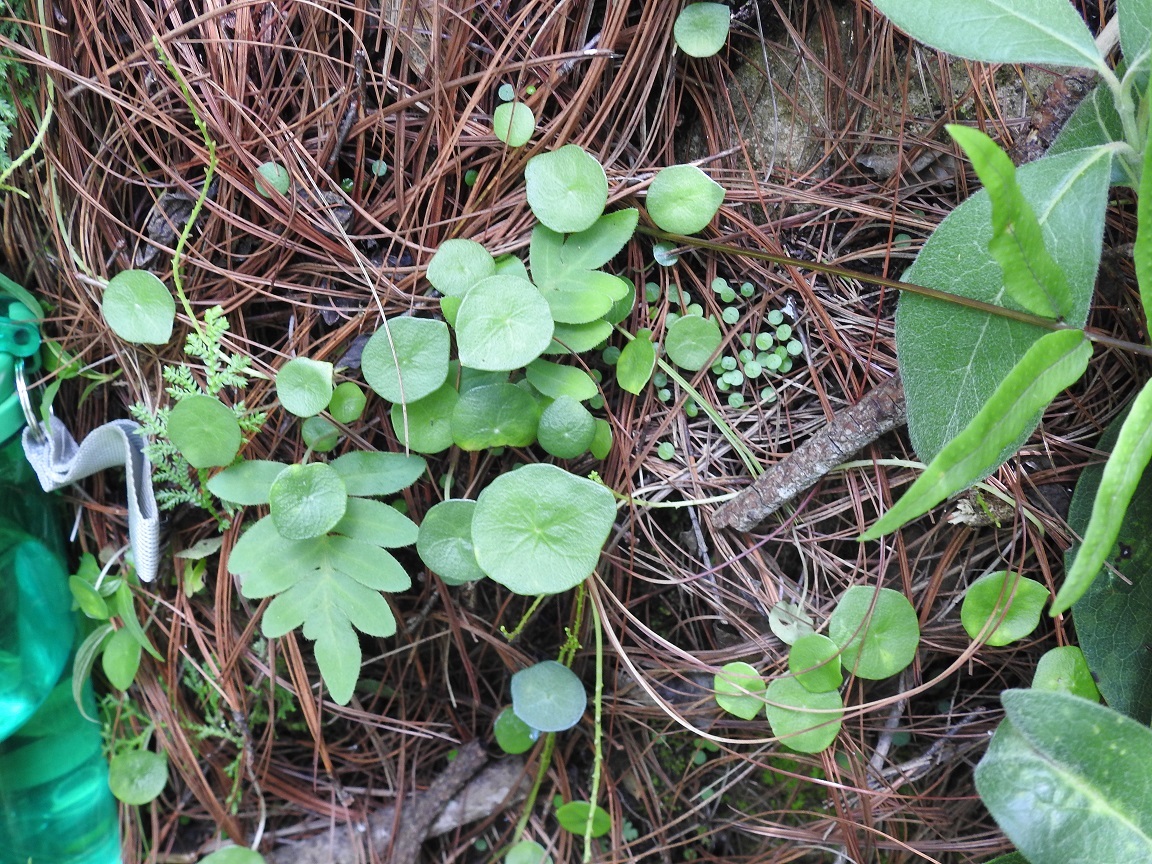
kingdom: Plantae
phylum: Tracheophyta
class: Magnoliopsida
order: Piperales
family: Piperaceae
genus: Peperomia
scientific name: Peperomia tuerckheimii
